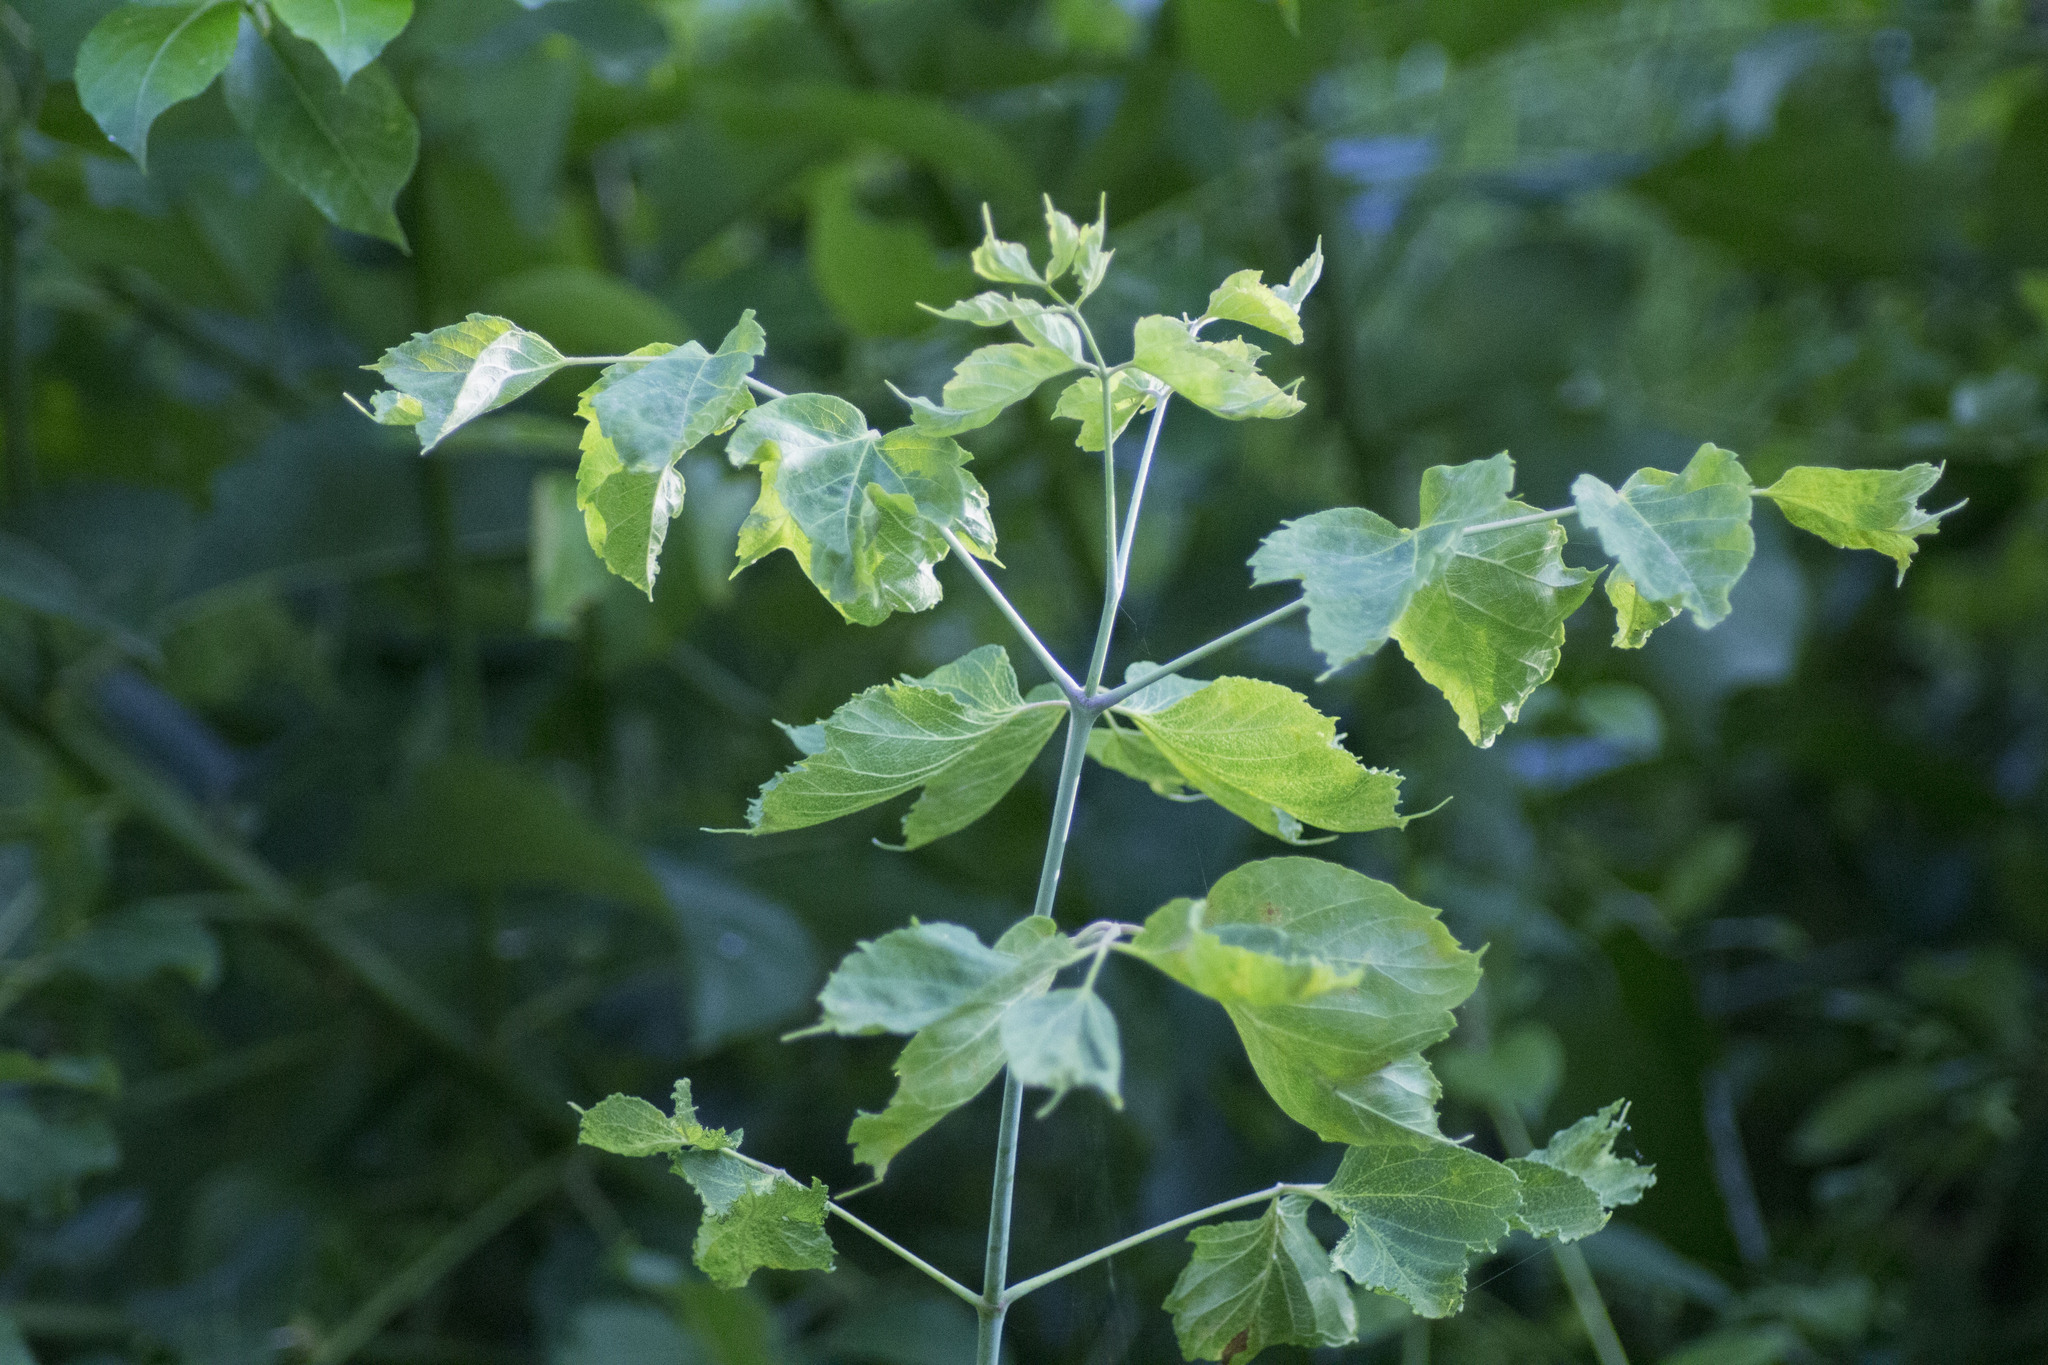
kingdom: Plantae
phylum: Tracheophyta
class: Magnoliopsida
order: Sapindales
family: Sapindaceae
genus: Acer
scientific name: Acer negundo
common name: Ashleaf maple
